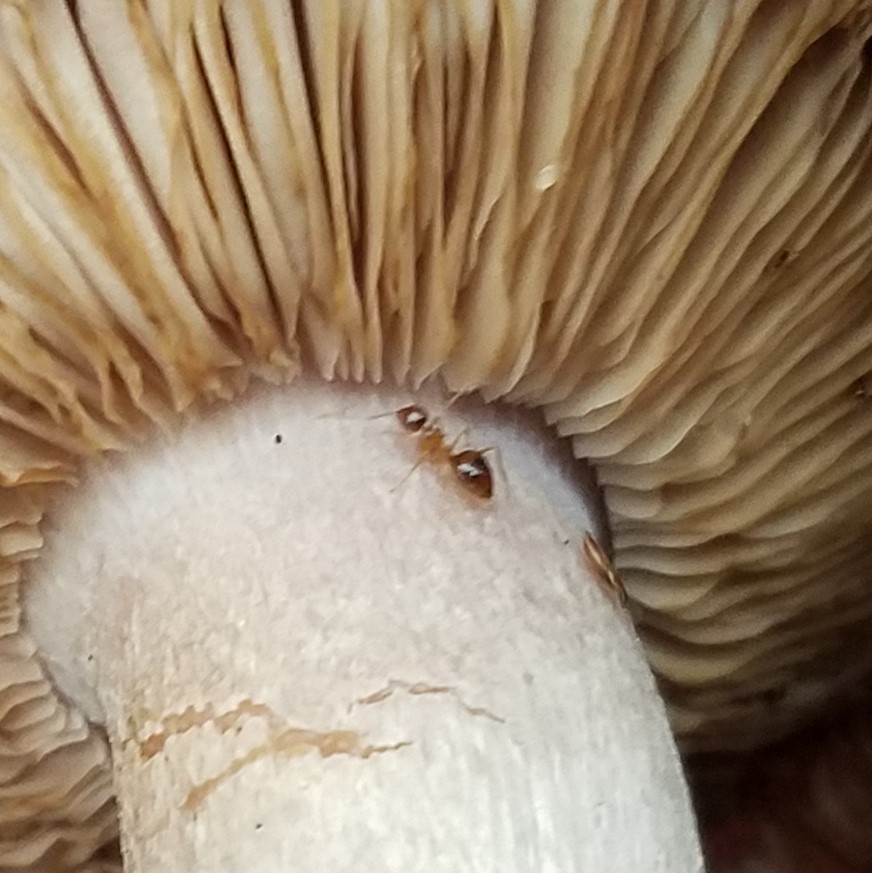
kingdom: Animalia
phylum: Arthropoda
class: Insecta
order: Hymenoptera
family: Formicidae
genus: Prenolepis
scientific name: Prenolepis imparis
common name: Small honey ant
